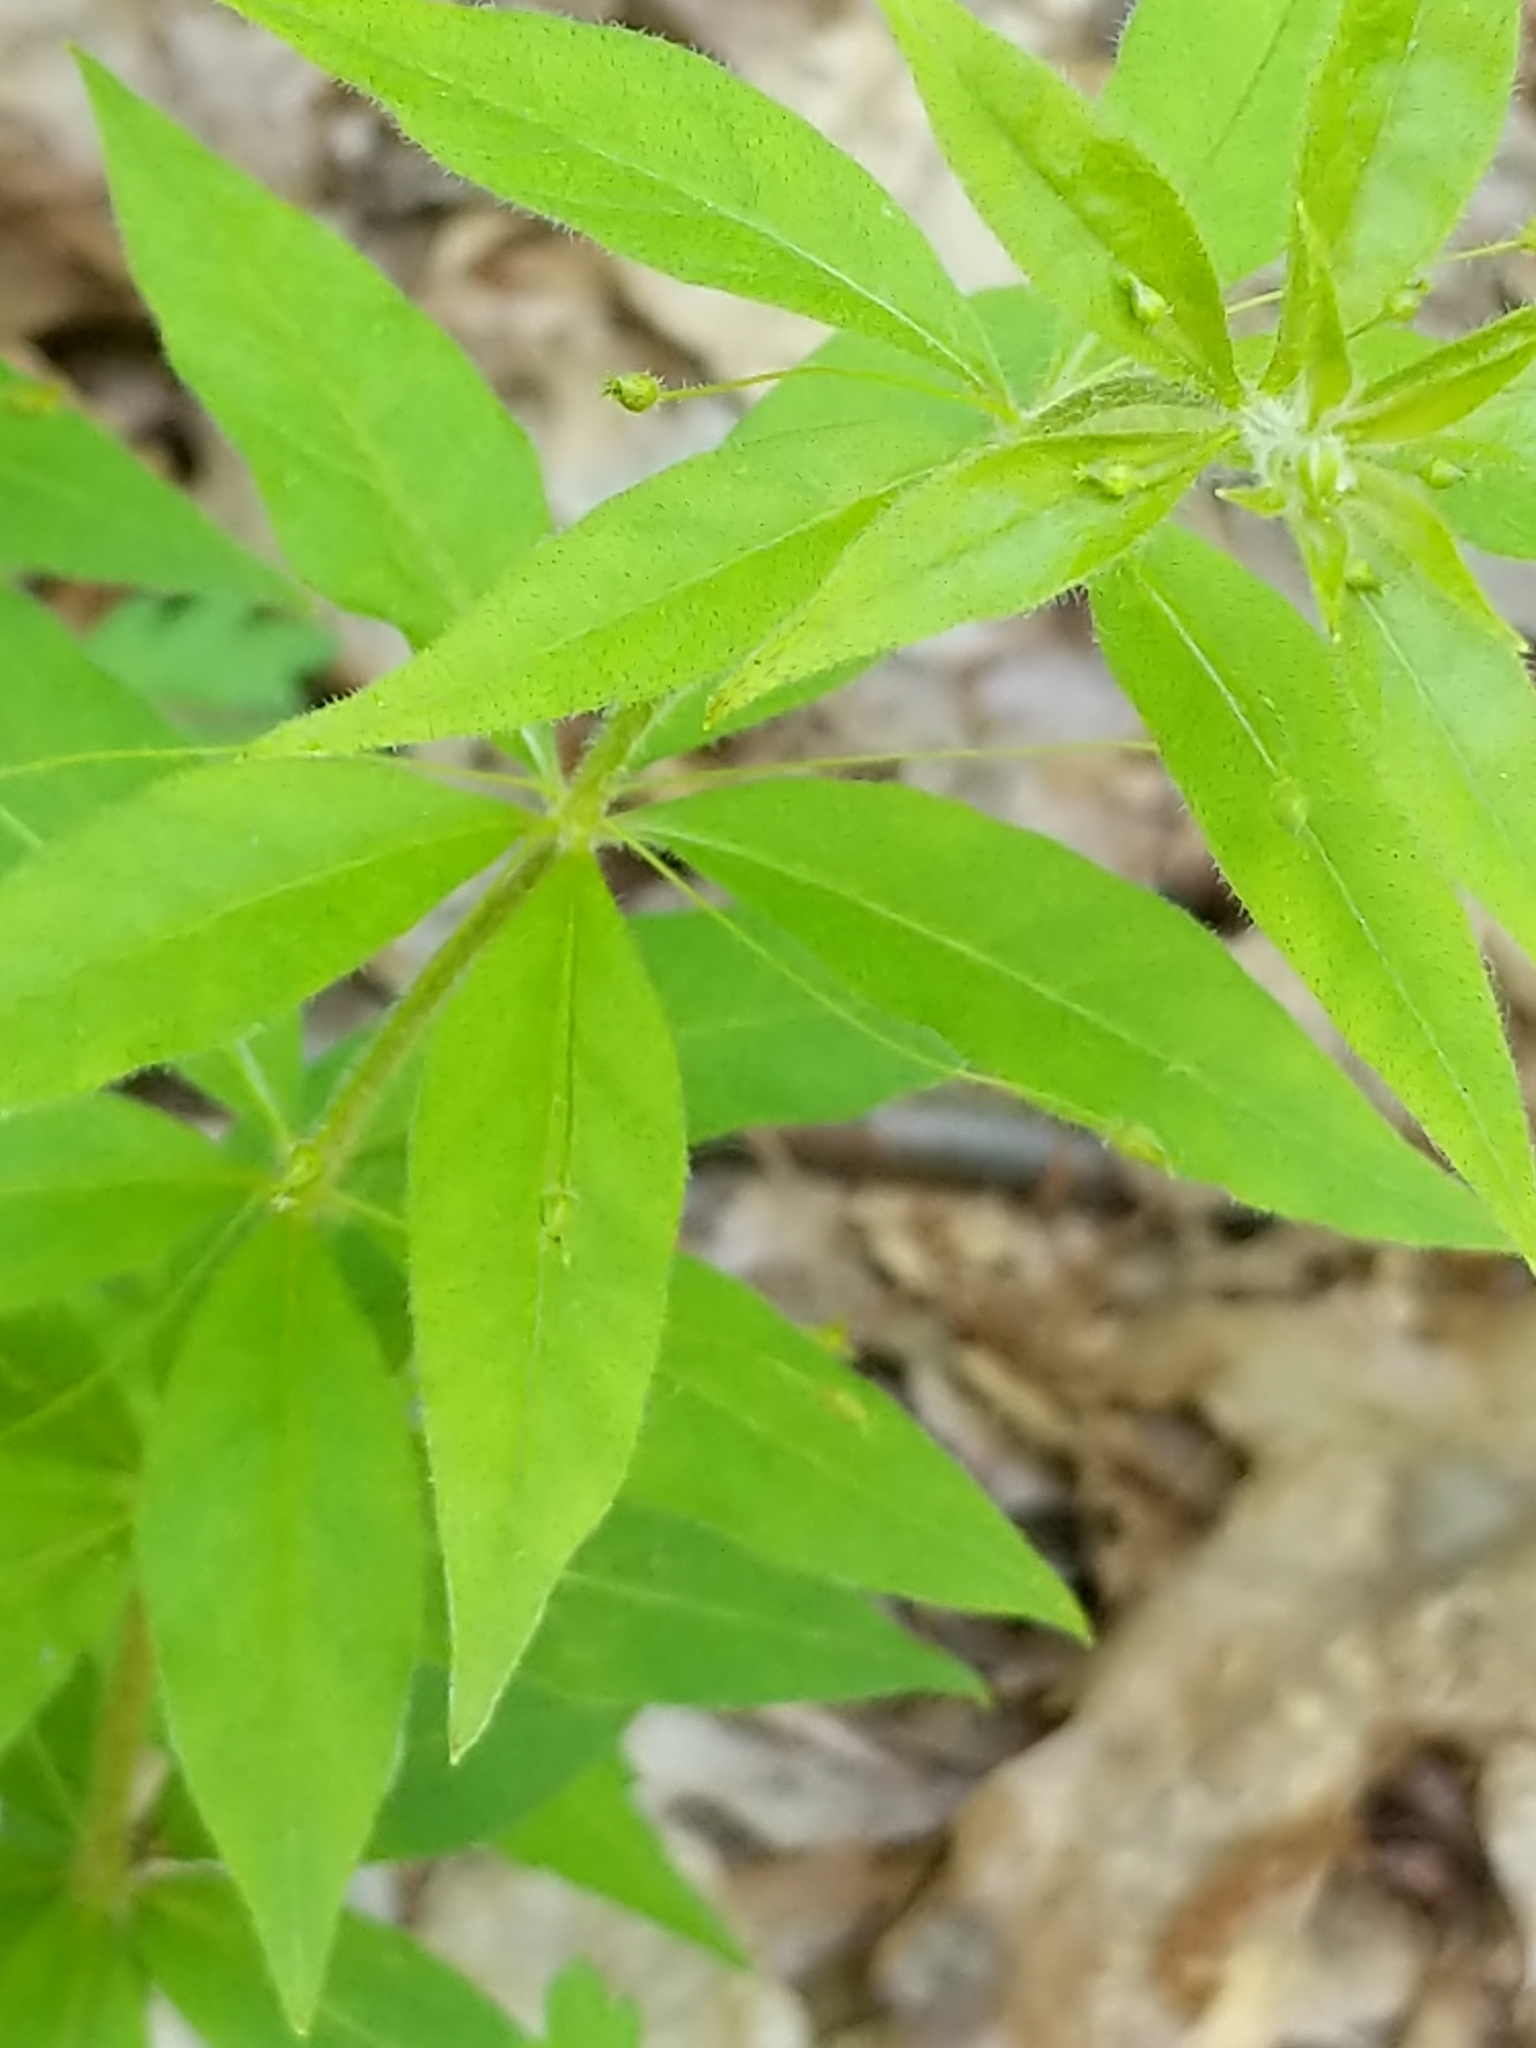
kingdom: Plantae
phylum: Tracheophyta
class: Magnoliopsida
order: Ericales
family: Primulaceae
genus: Lysimachia
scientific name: Lysimachia quadrifolia
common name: Whorled loosestrife
